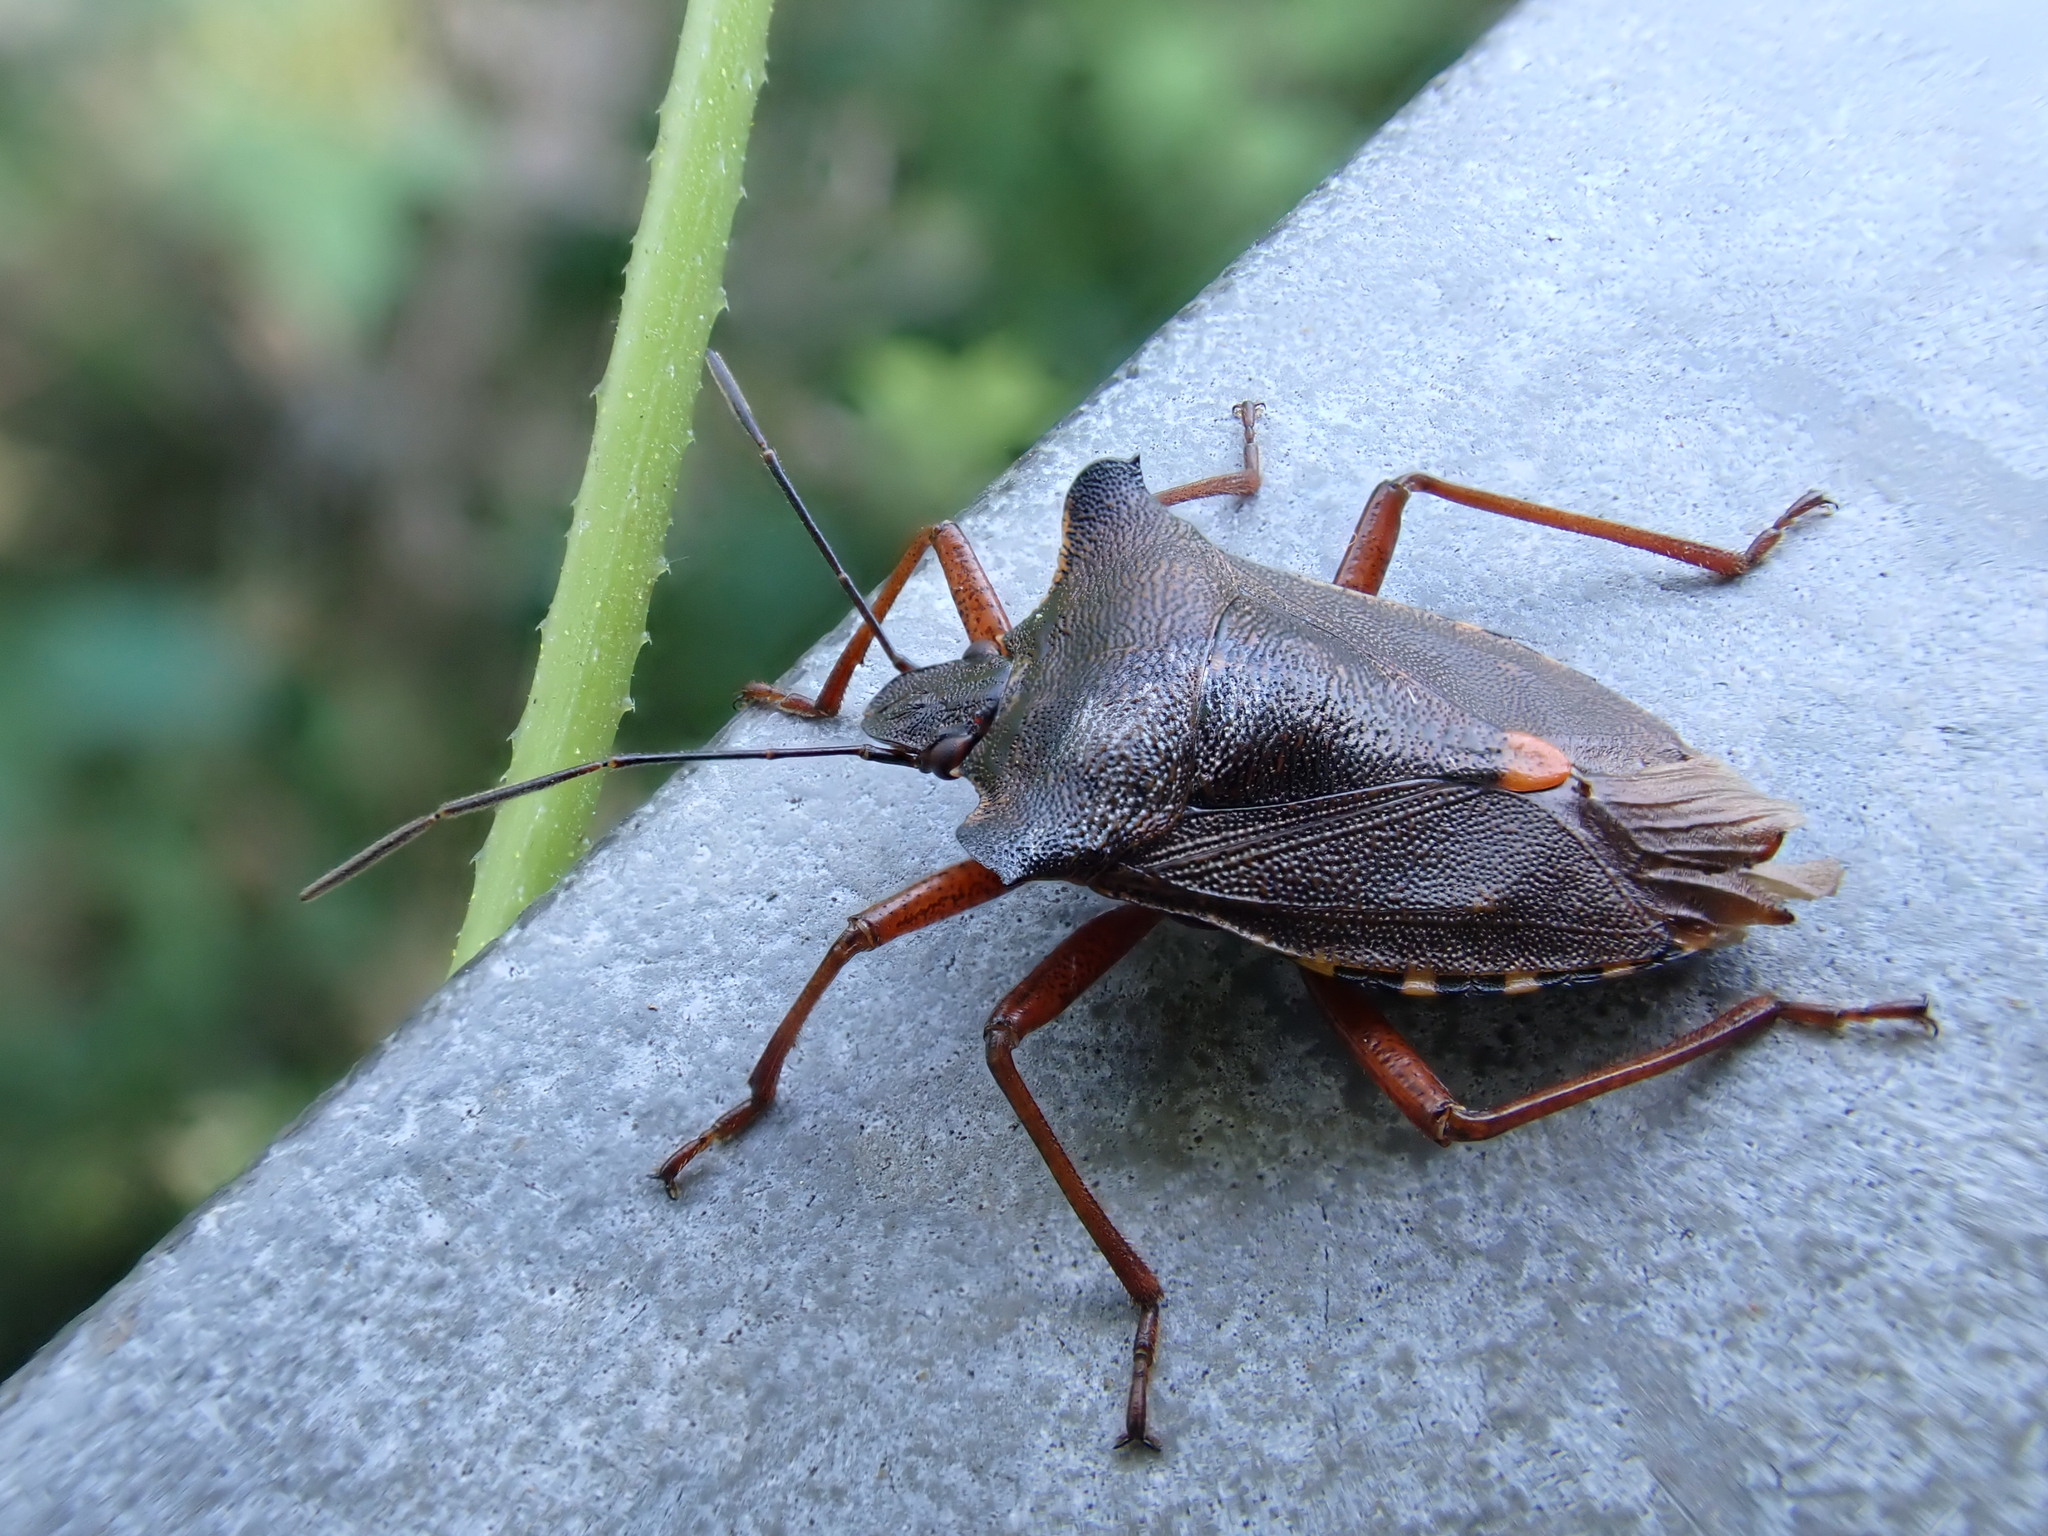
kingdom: Animalia
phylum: Arthropoda
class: Insecta
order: Hemiptera
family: Pentatomidae
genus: Pentatoma
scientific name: Pentatoma rufipes
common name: Forest bug
